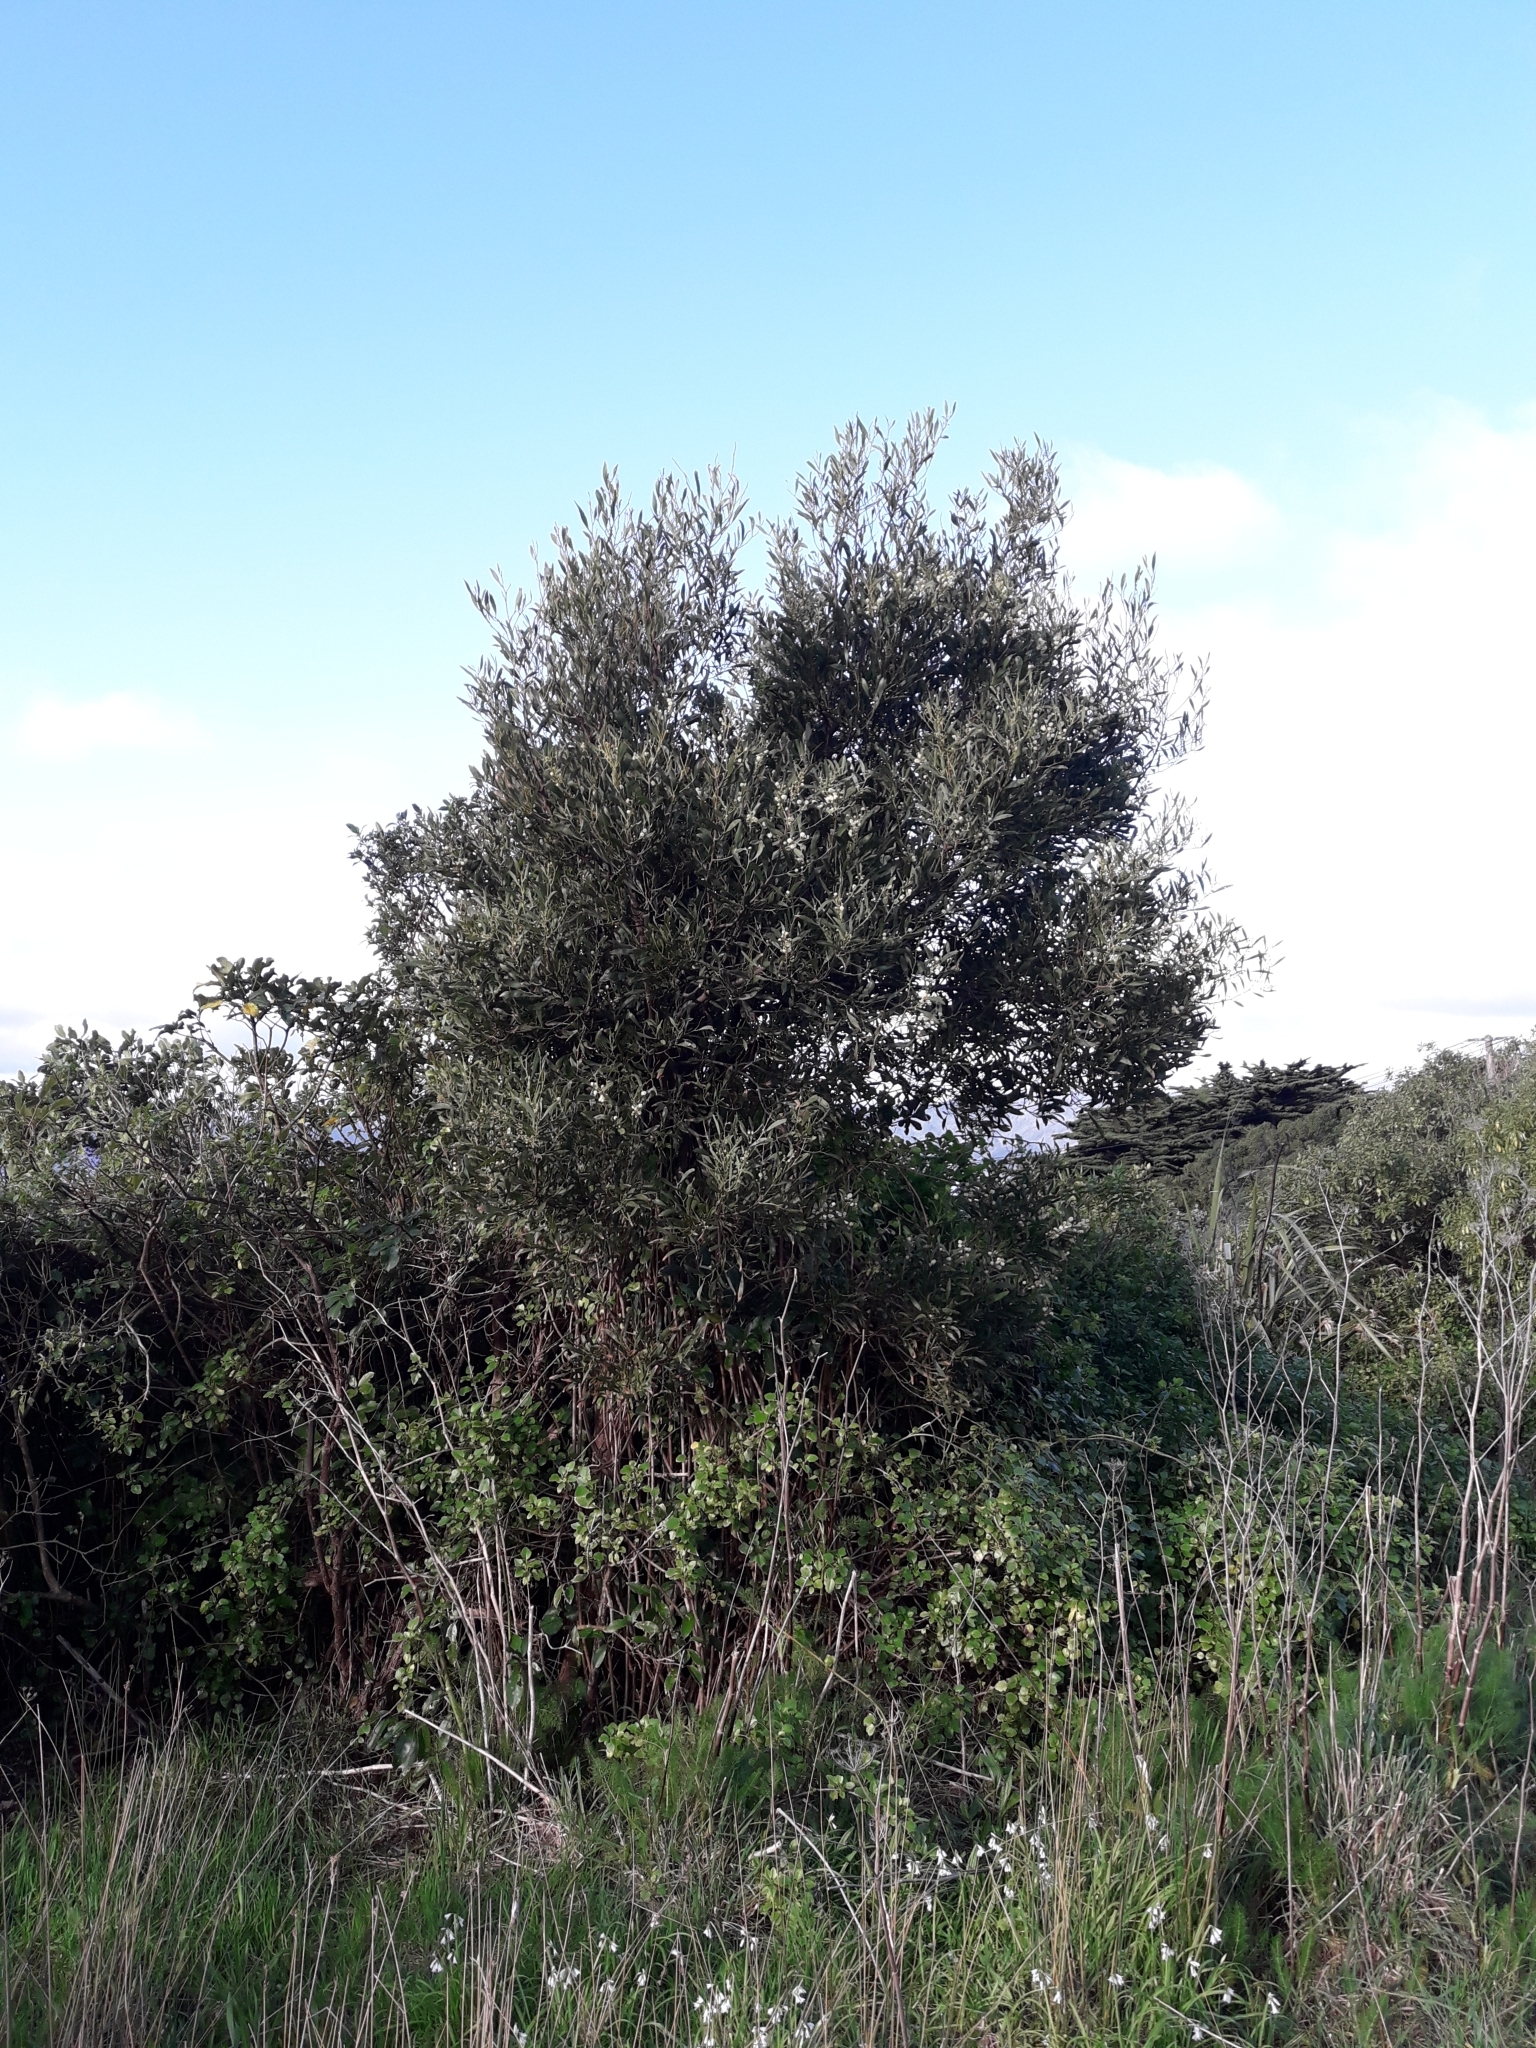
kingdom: Plantae
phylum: Tracheophyta
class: Magnoliopsida
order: Fabales
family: Fabaceae
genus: Acacia
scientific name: Acacia melanoxylon
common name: Blackwood
